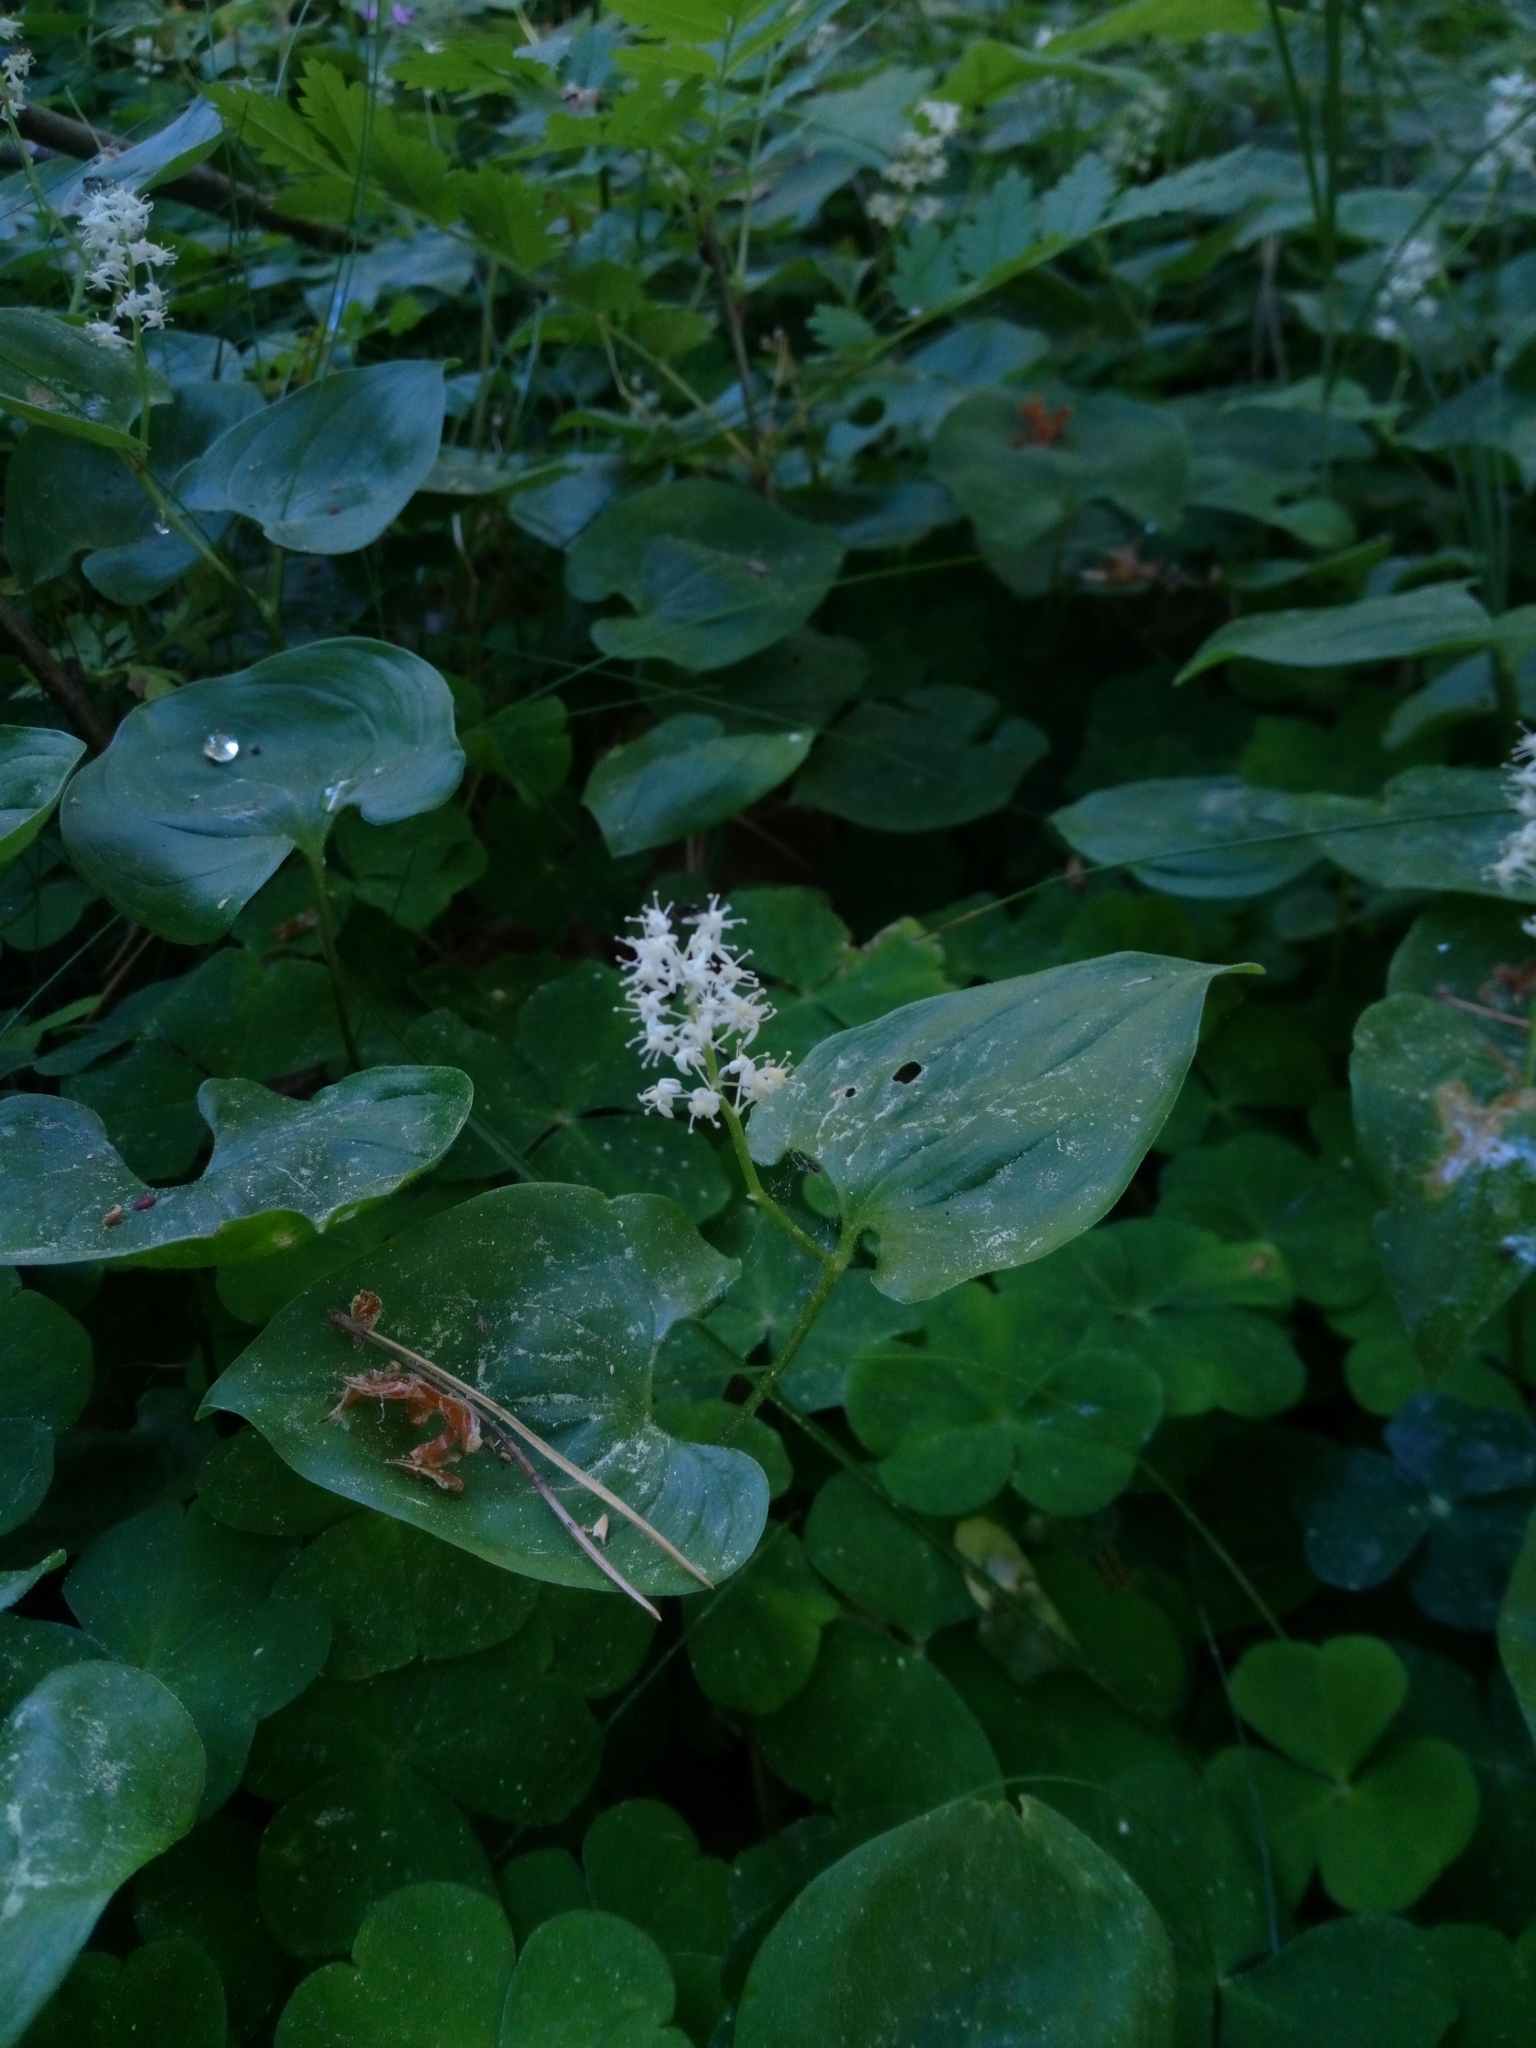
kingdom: Plantae
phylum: Tracheophyta
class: Liliopsida
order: Asparagales
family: Asparagaceae
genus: Maianthemum
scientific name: Maianthemum bifolium
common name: May lily
